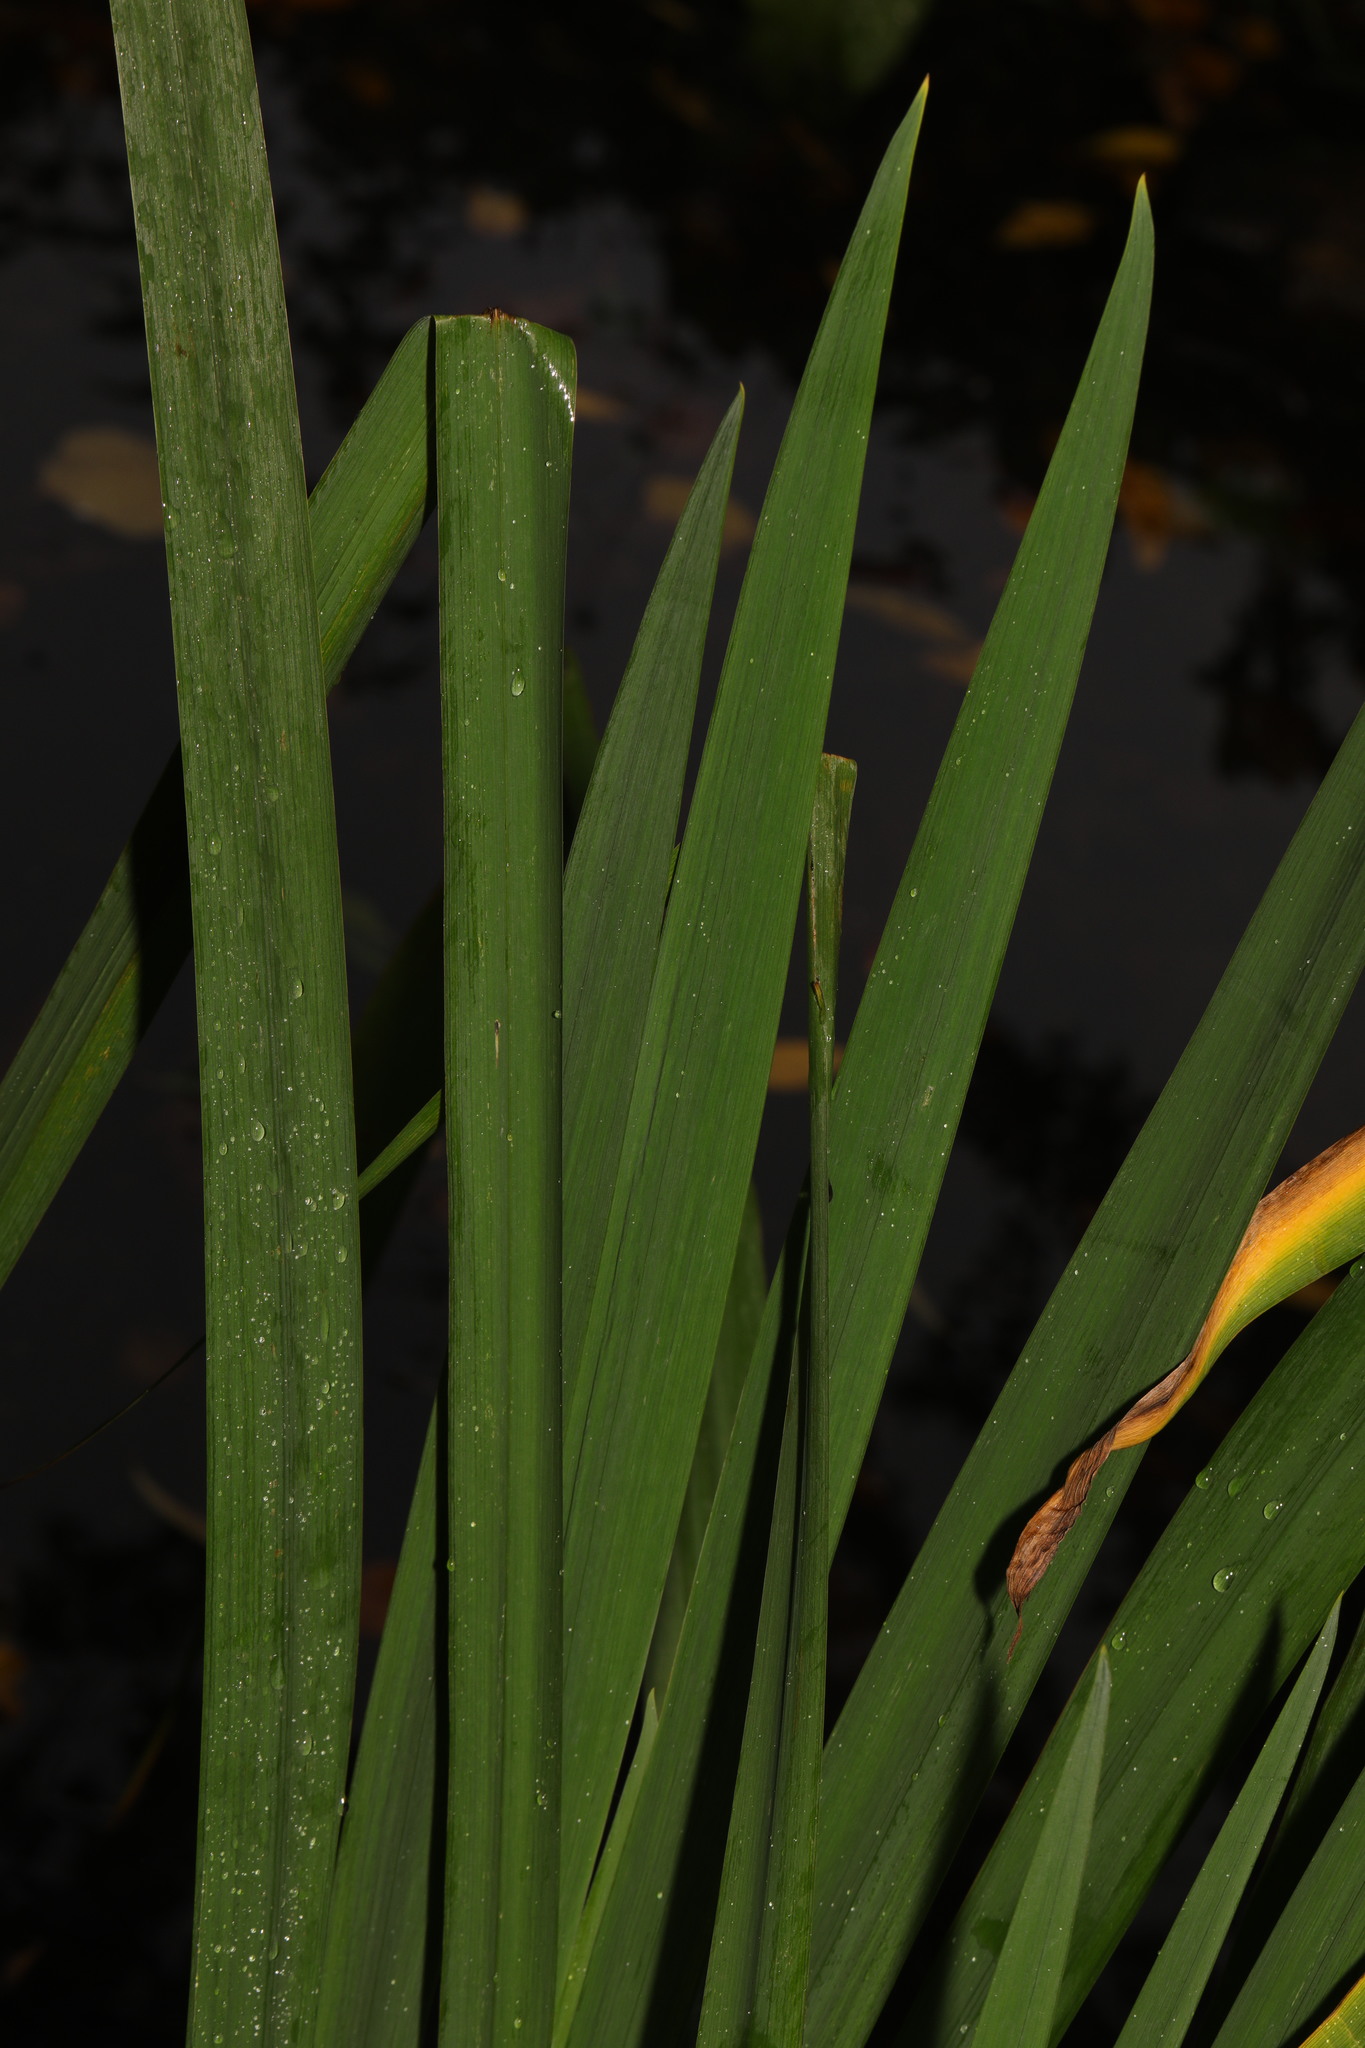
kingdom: Plantae
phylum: Tracheophyta
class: Liliopsida
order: Asparagales
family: Iridaceae
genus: Iris
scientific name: Iris pseudacorus
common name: Yellow flag
